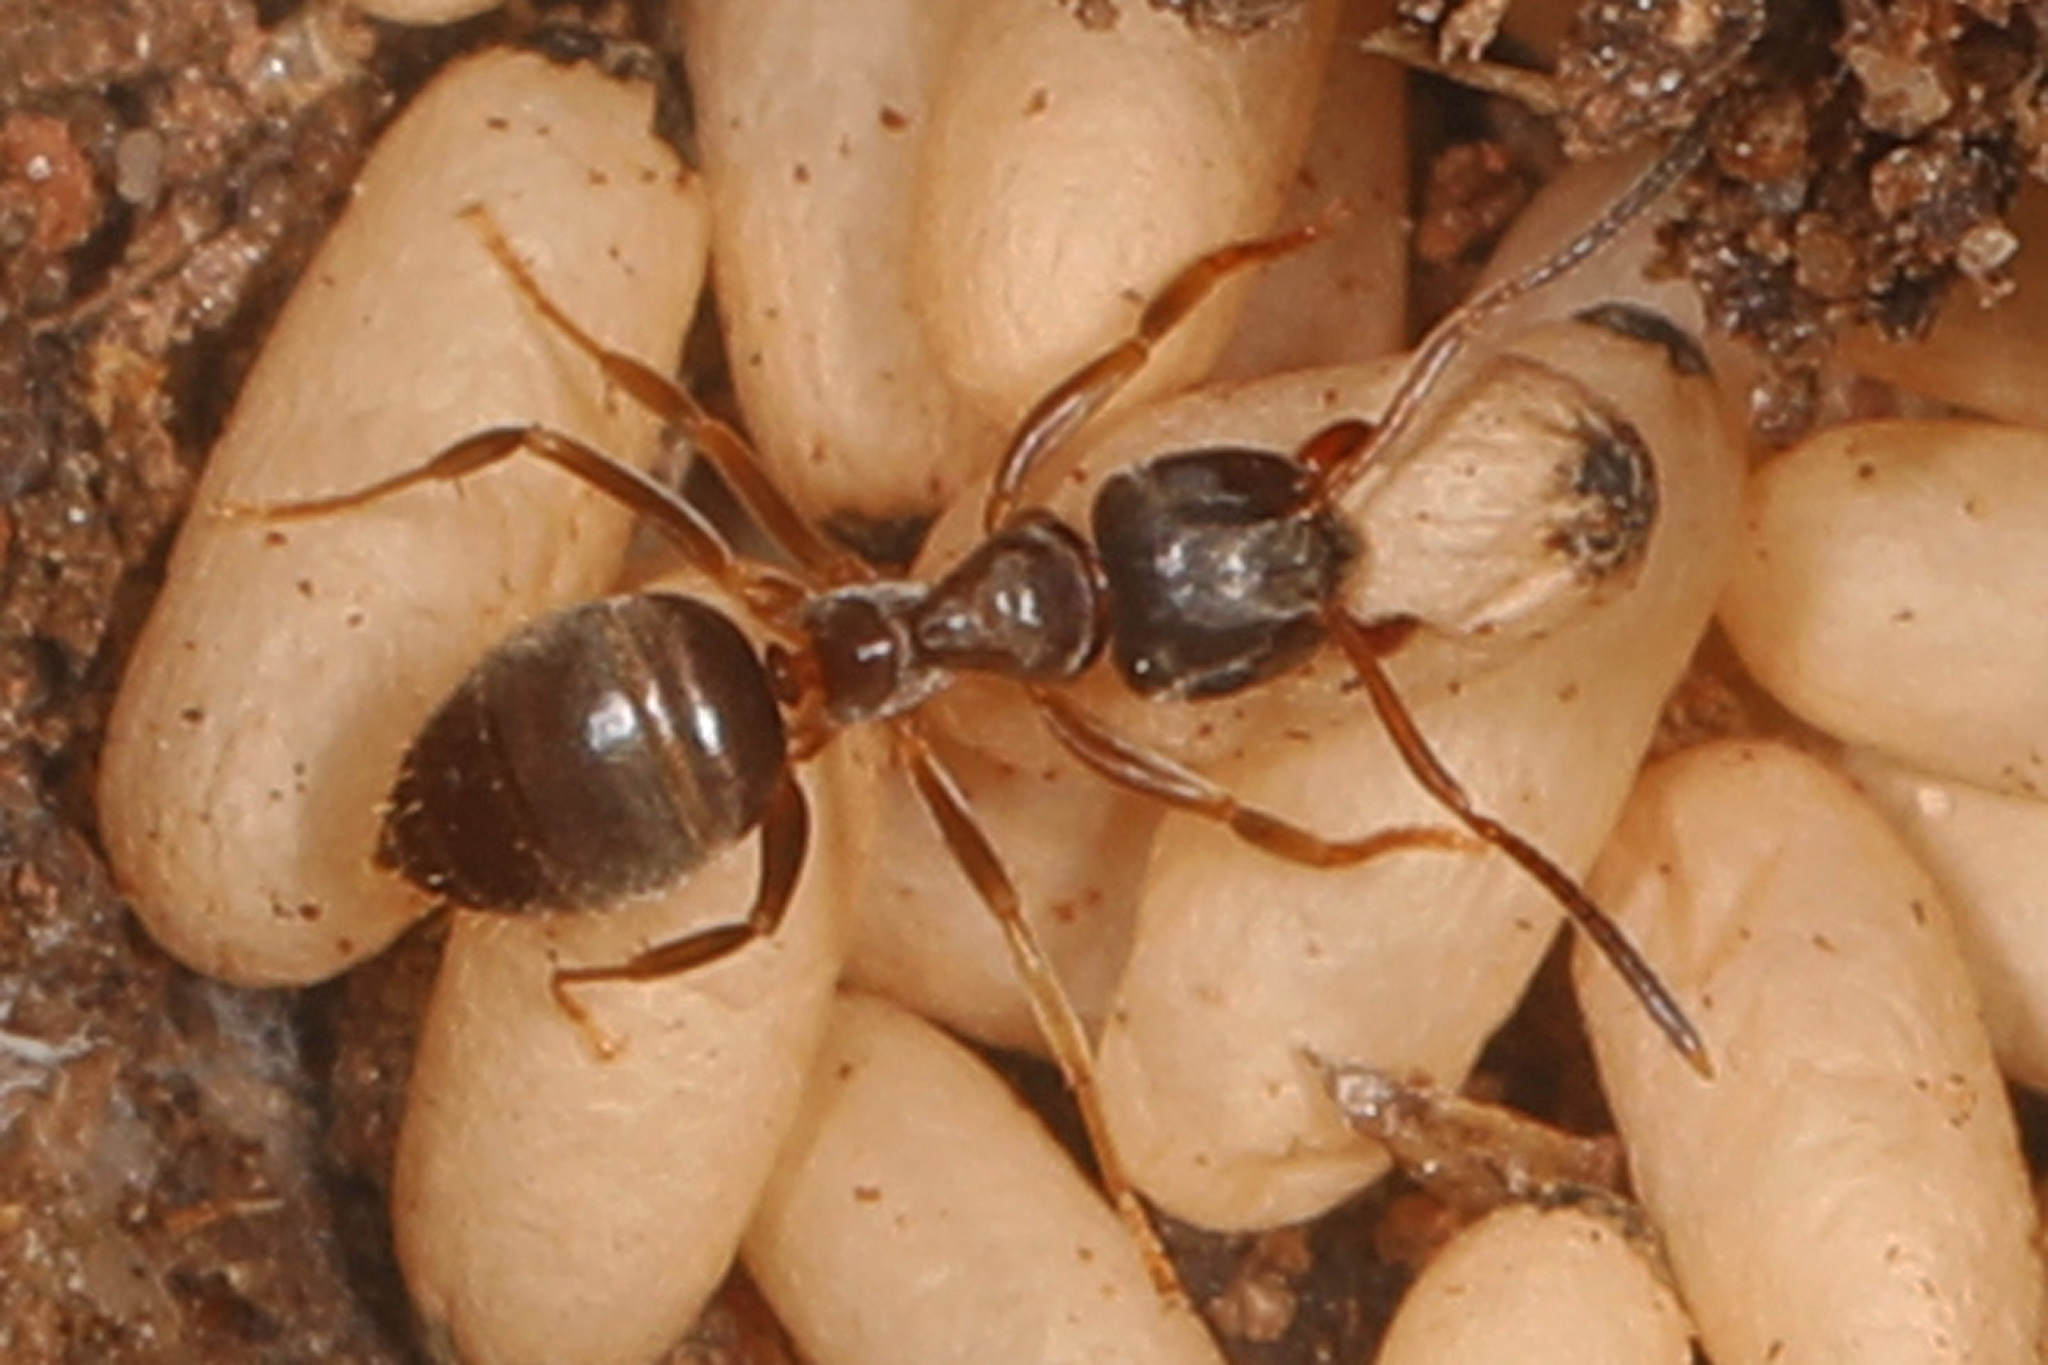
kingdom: Animalia
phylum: Arthropoda
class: Insecta
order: Hymenoptera
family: Formicidae
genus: Lasius
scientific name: Lasius americanus
